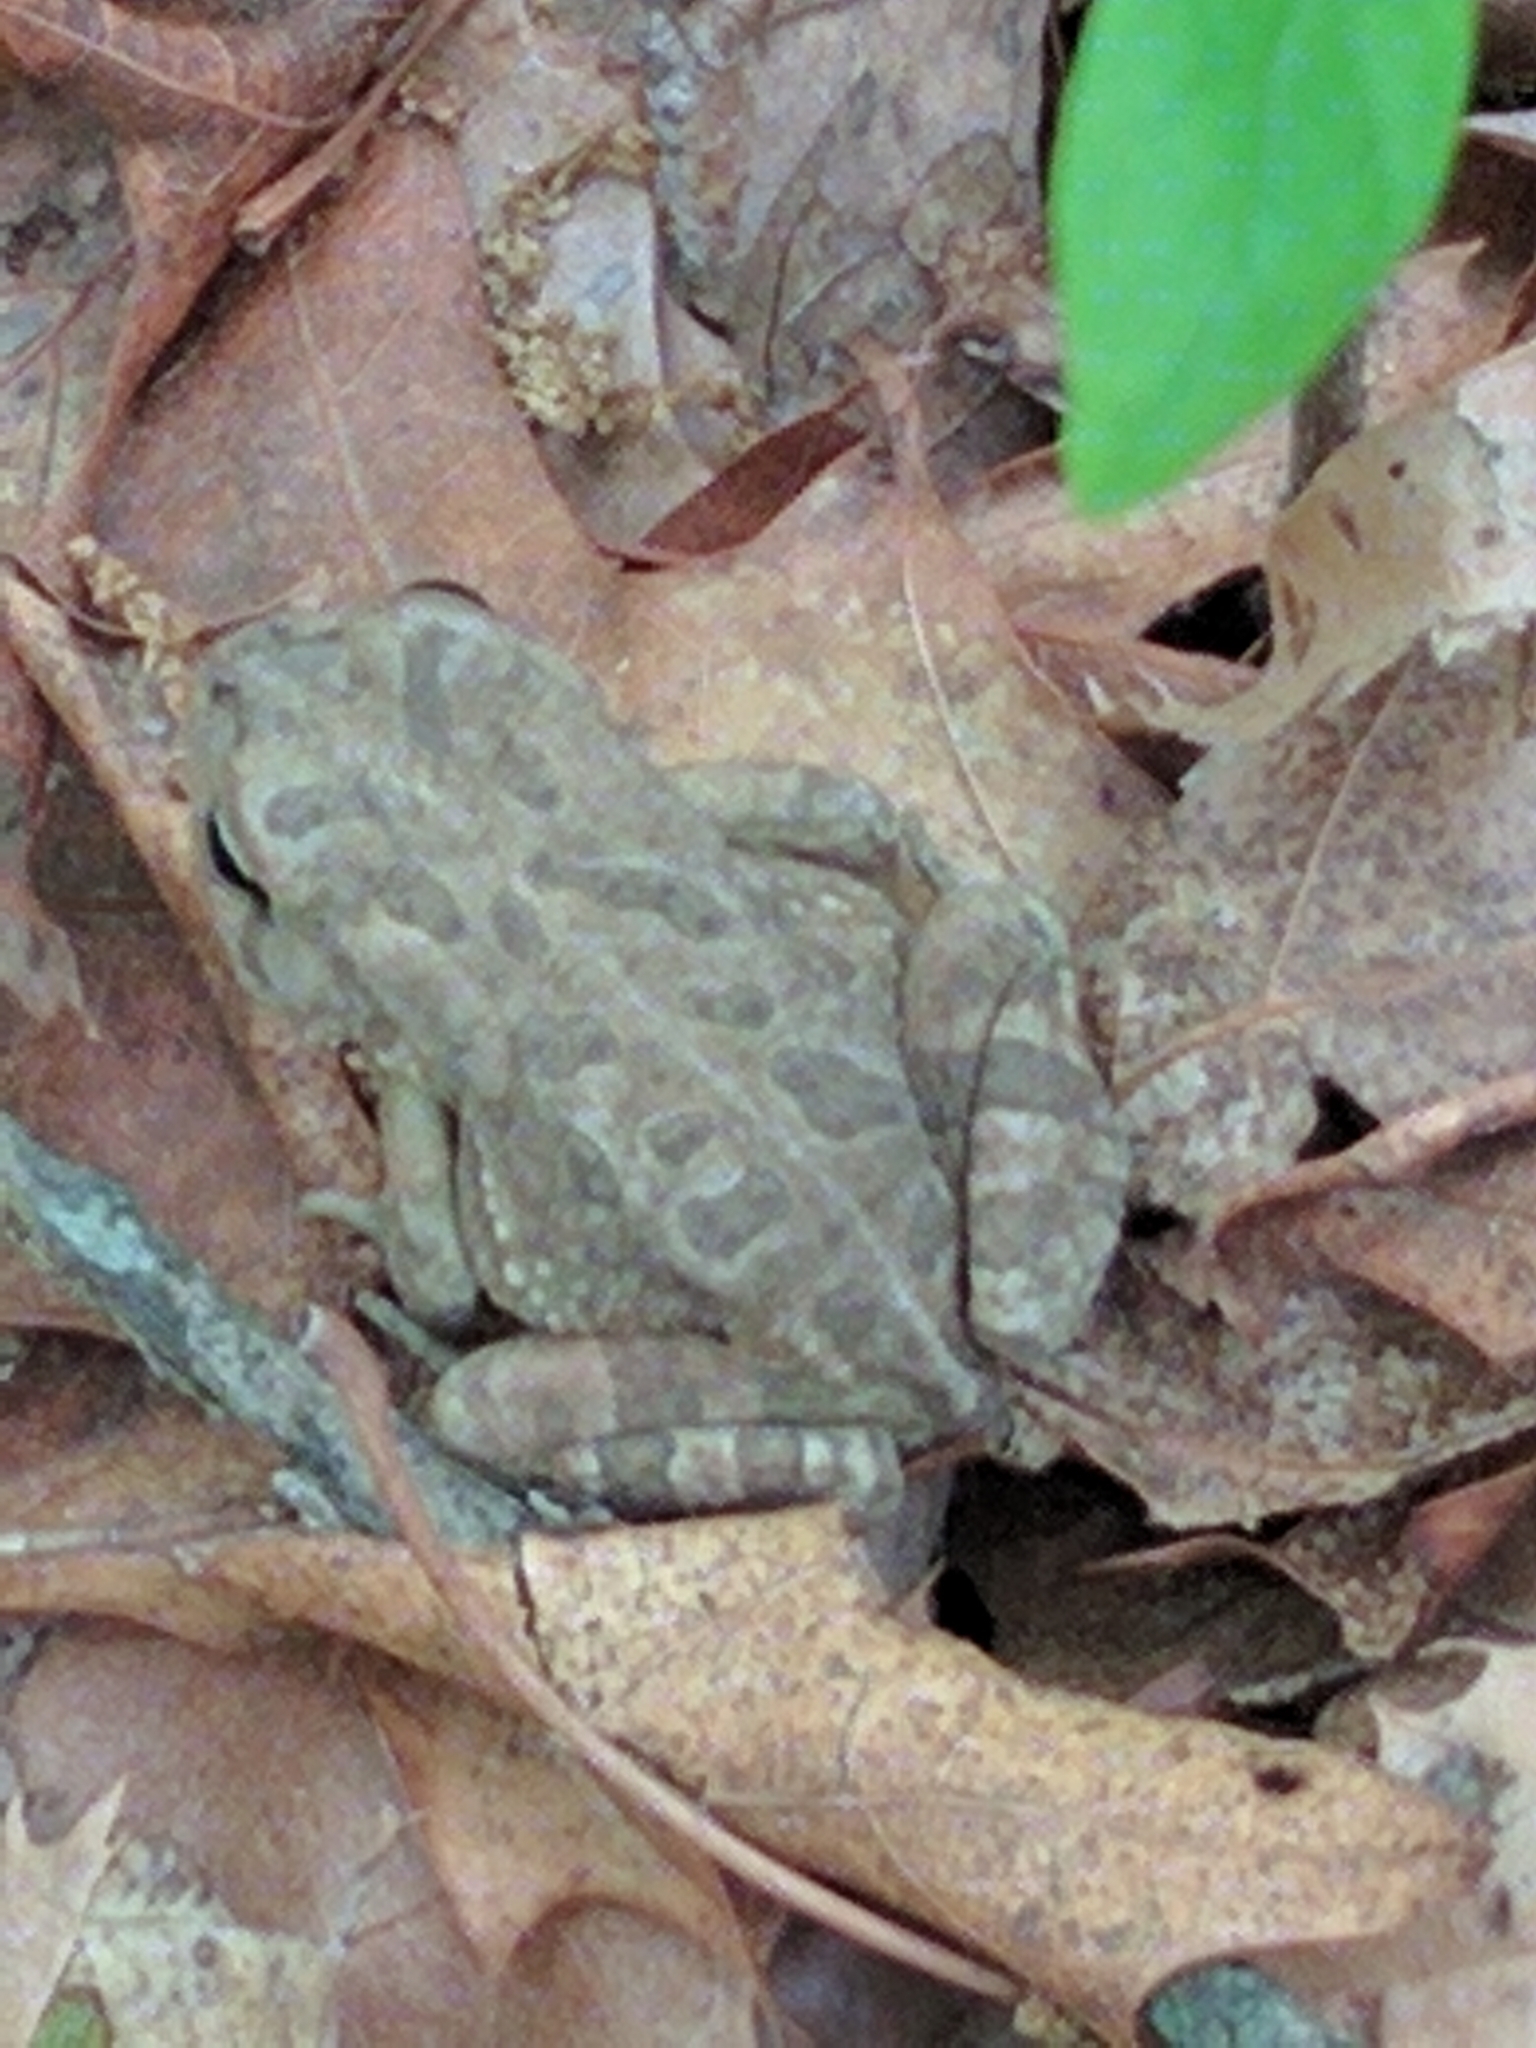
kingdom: Animalia
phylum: Chordata
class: Amphibia
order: Anura
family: Bufonidae
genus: Anaxyrus
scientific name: Anaxyrus fowleri
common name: Fowler's toad
